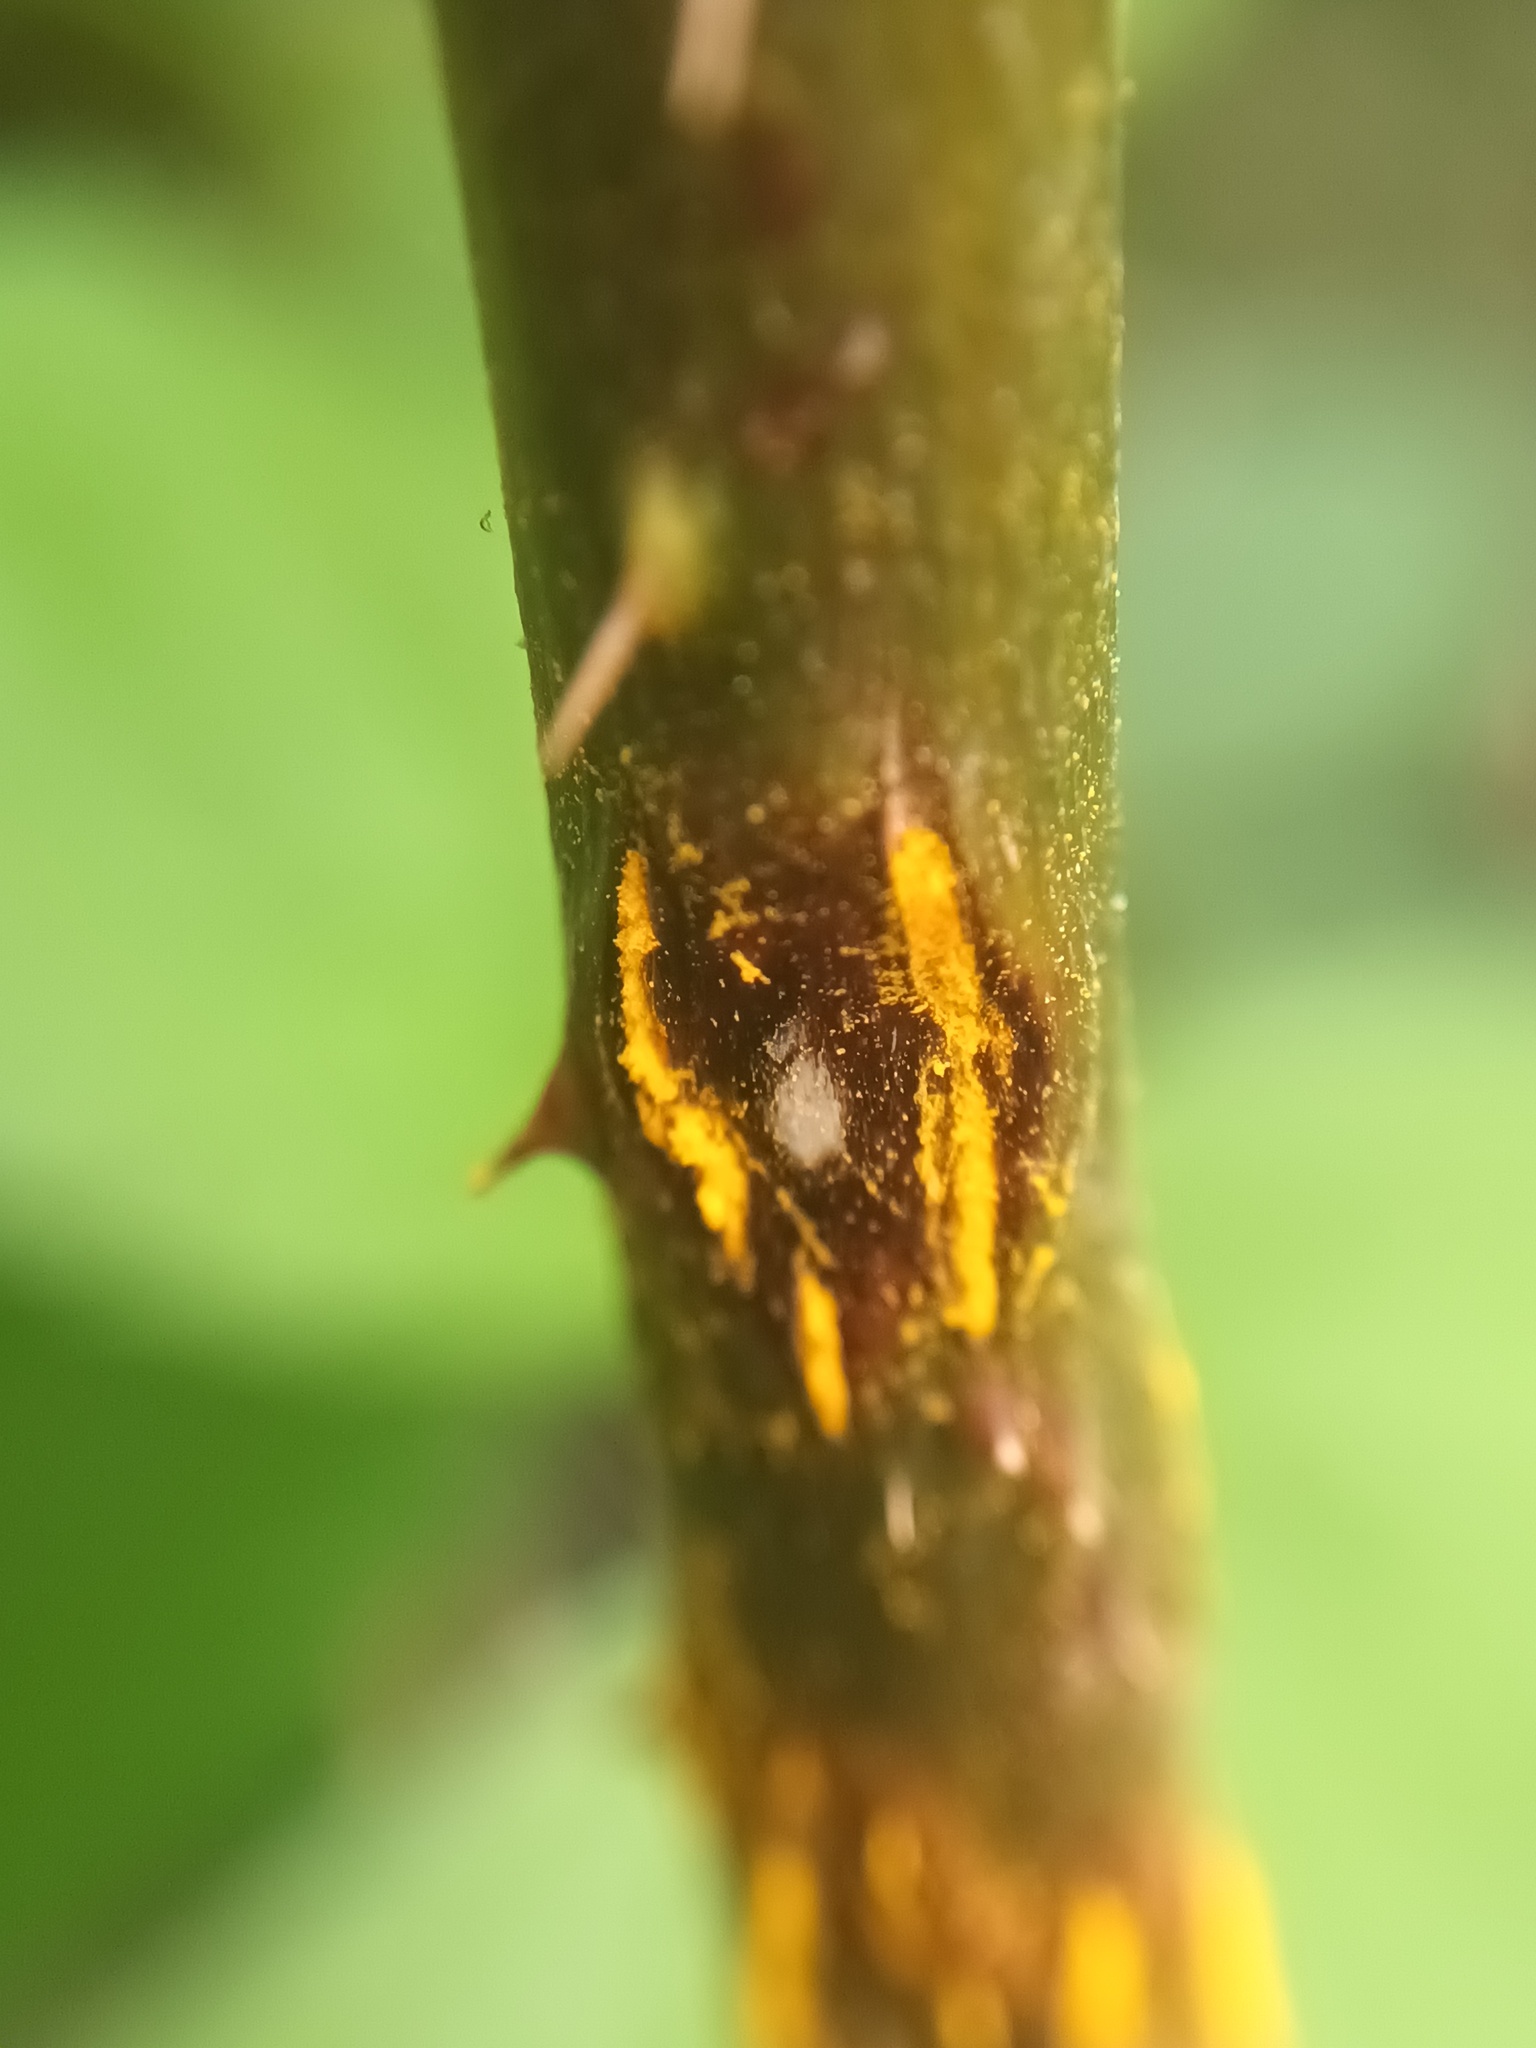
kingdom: Fungi
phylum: Basidiomycota
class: Pucciniomycetes
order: Pucciniales
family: Phragmidiaceae
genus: Kuehneola
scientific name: Kuehneola uredinis
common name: Bramble stem rust
